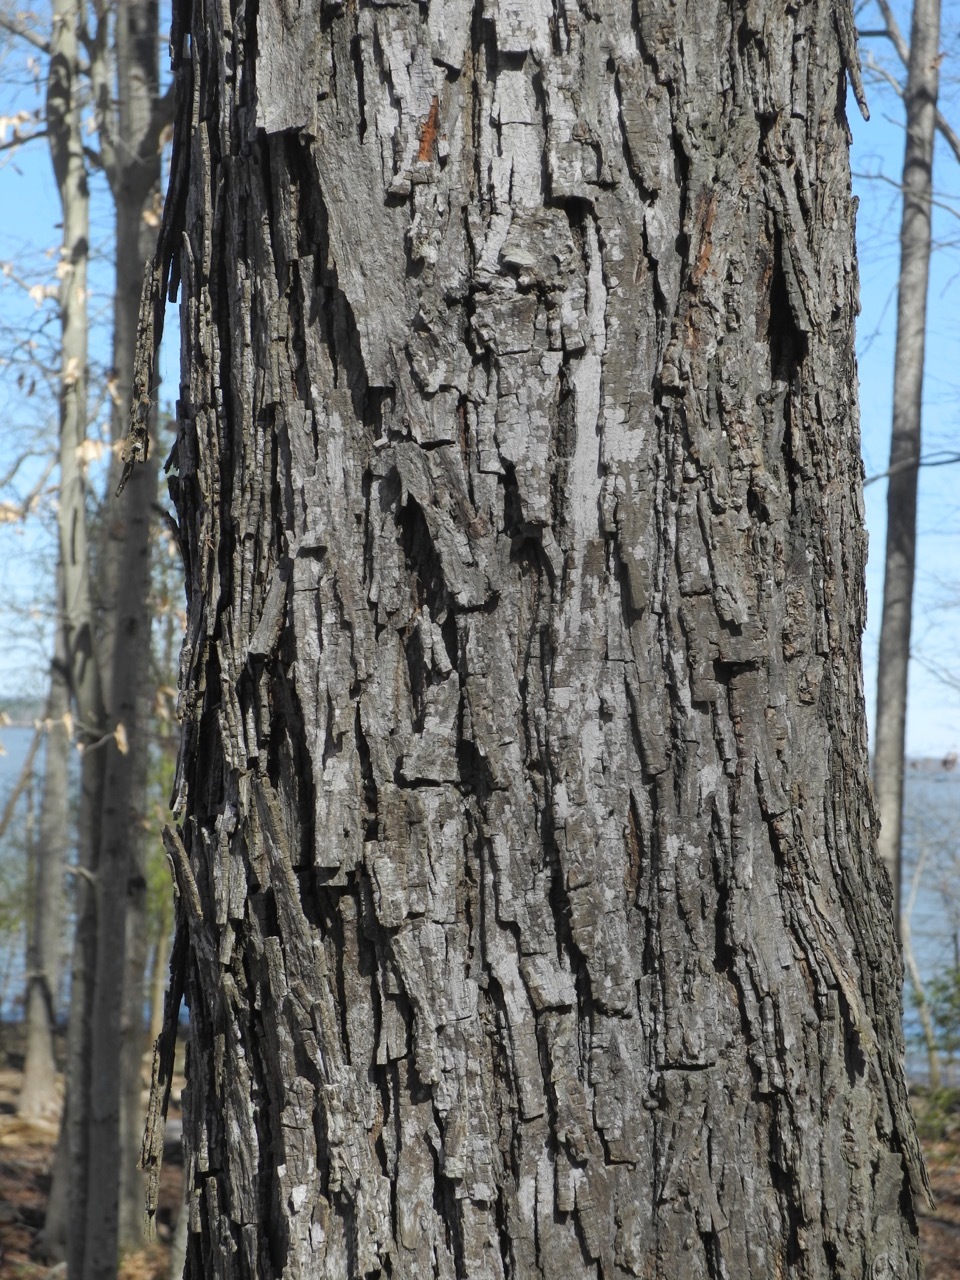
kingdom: Plantae
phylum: Tracheophyta
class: Magnoliopsida
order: Fagales
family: Juglandaceae
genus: Carya
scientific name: Carya cordiformis
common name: Bitternut hickory
